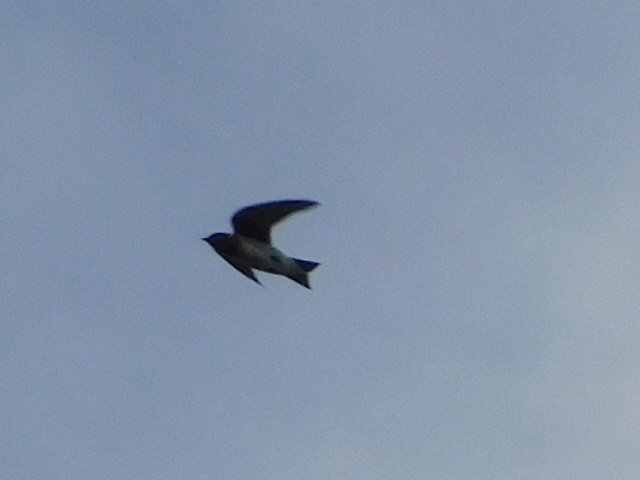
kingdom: Animalia
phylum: Chordata
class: Aves
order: Passeriformes
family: Hirundinidae
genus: Progne
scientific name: Progne subis
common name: Purple martin
